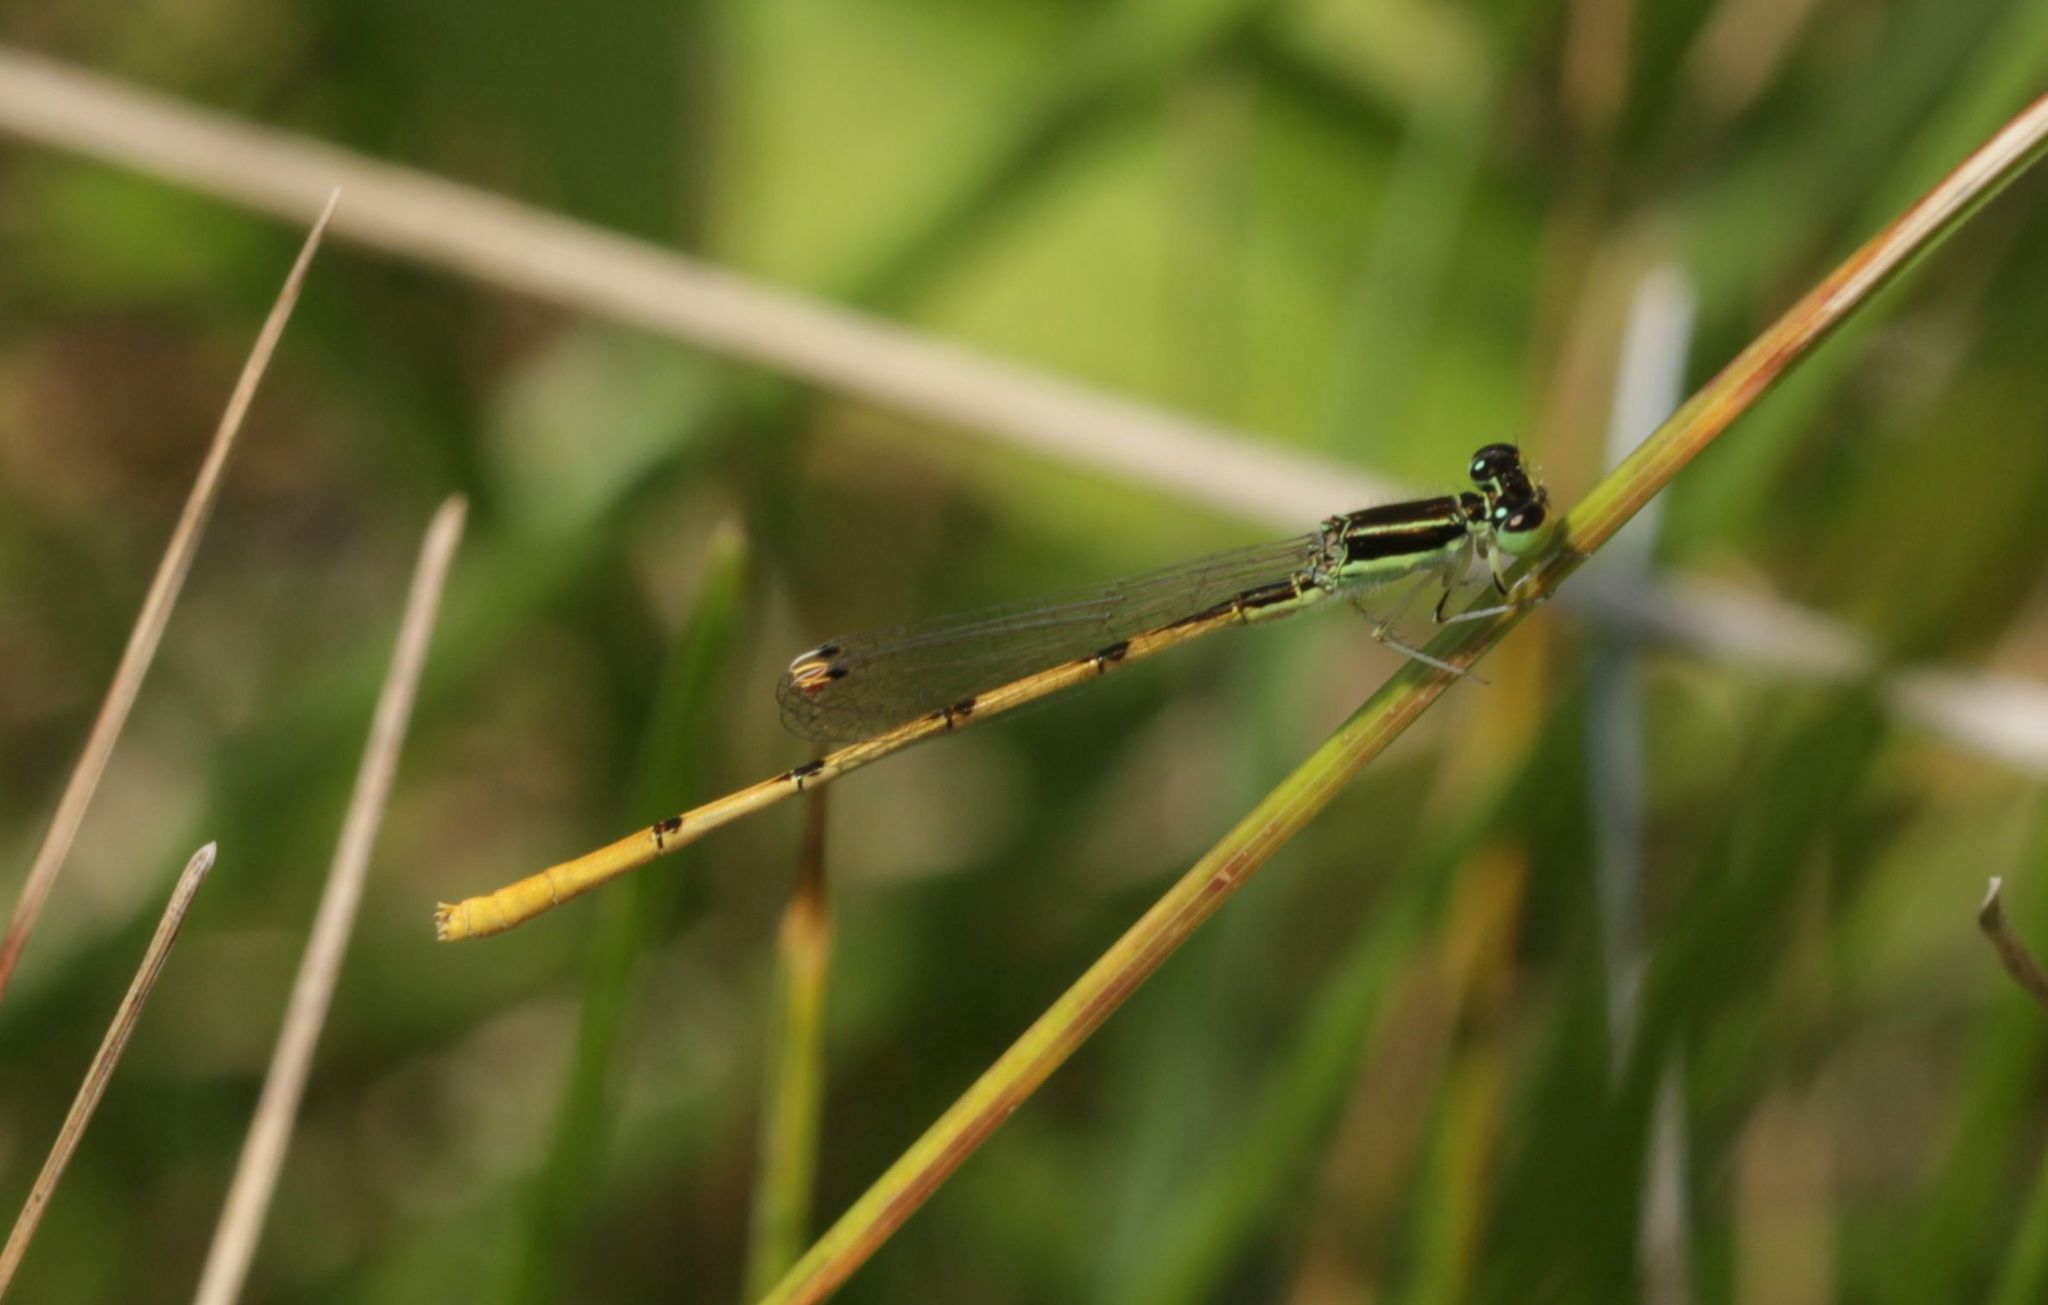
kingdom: Animalia
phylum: Arthropoda
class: Insecta
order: Odonata
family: Coenagrionidae
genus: Ischnura
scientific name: Ischnura hastata
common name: Citrine forktail
